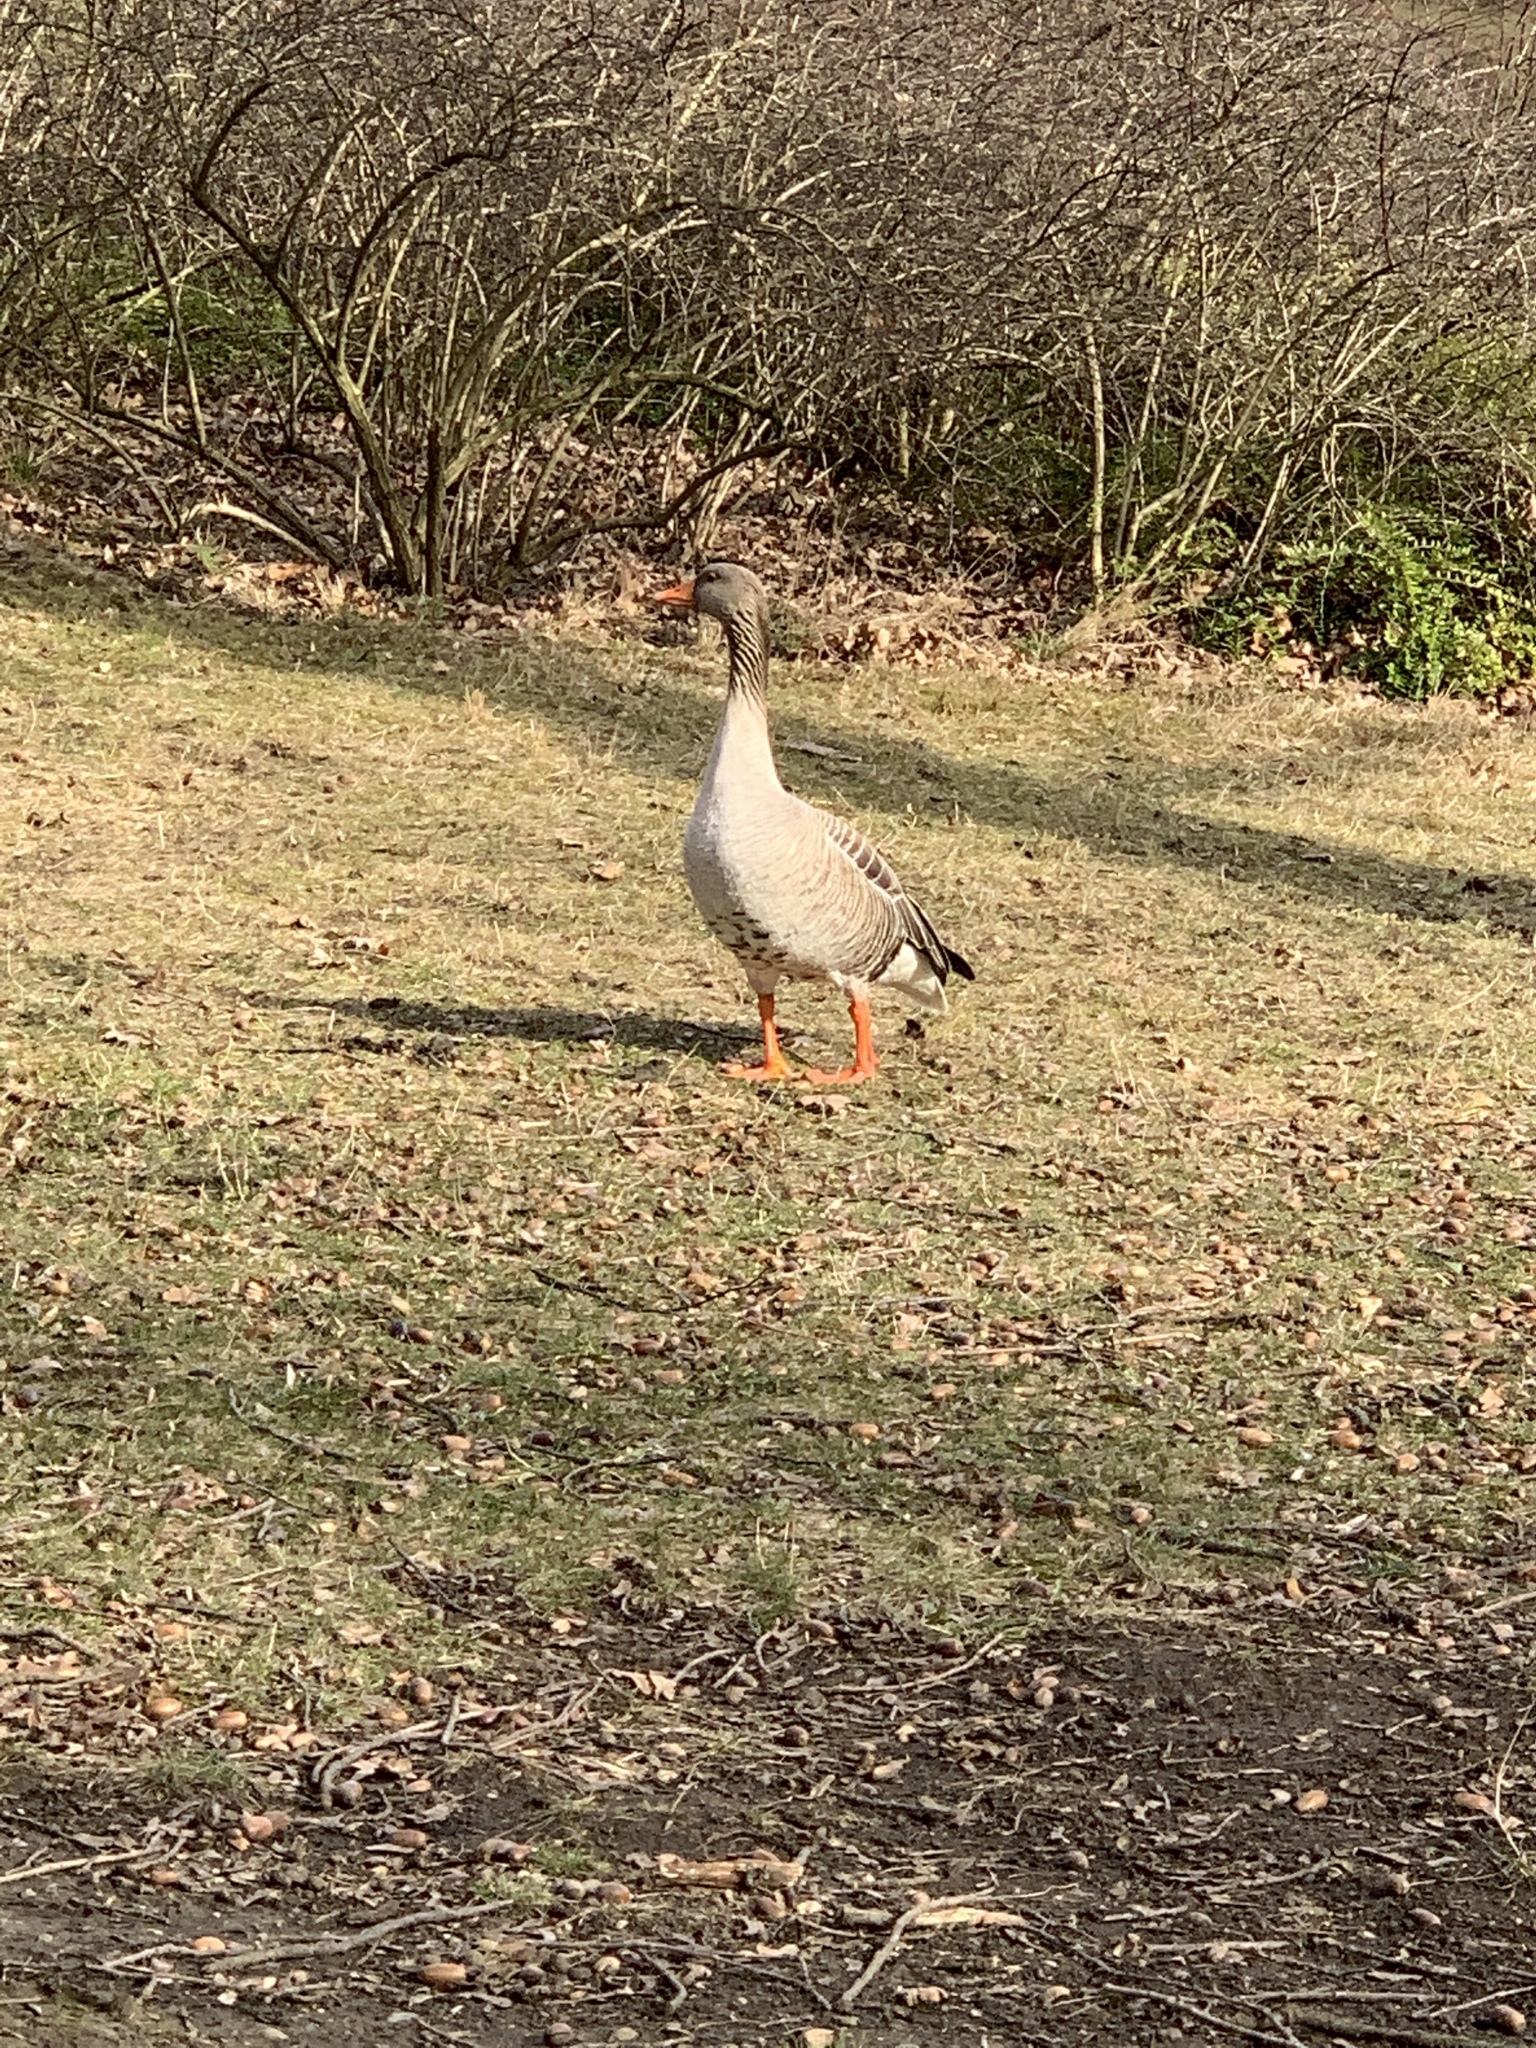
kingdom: Animalia
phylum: Chordata
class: Aves
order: Anseriformes
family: Anatidae
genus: Anser
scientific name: Anser anser
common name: Greylag goose
